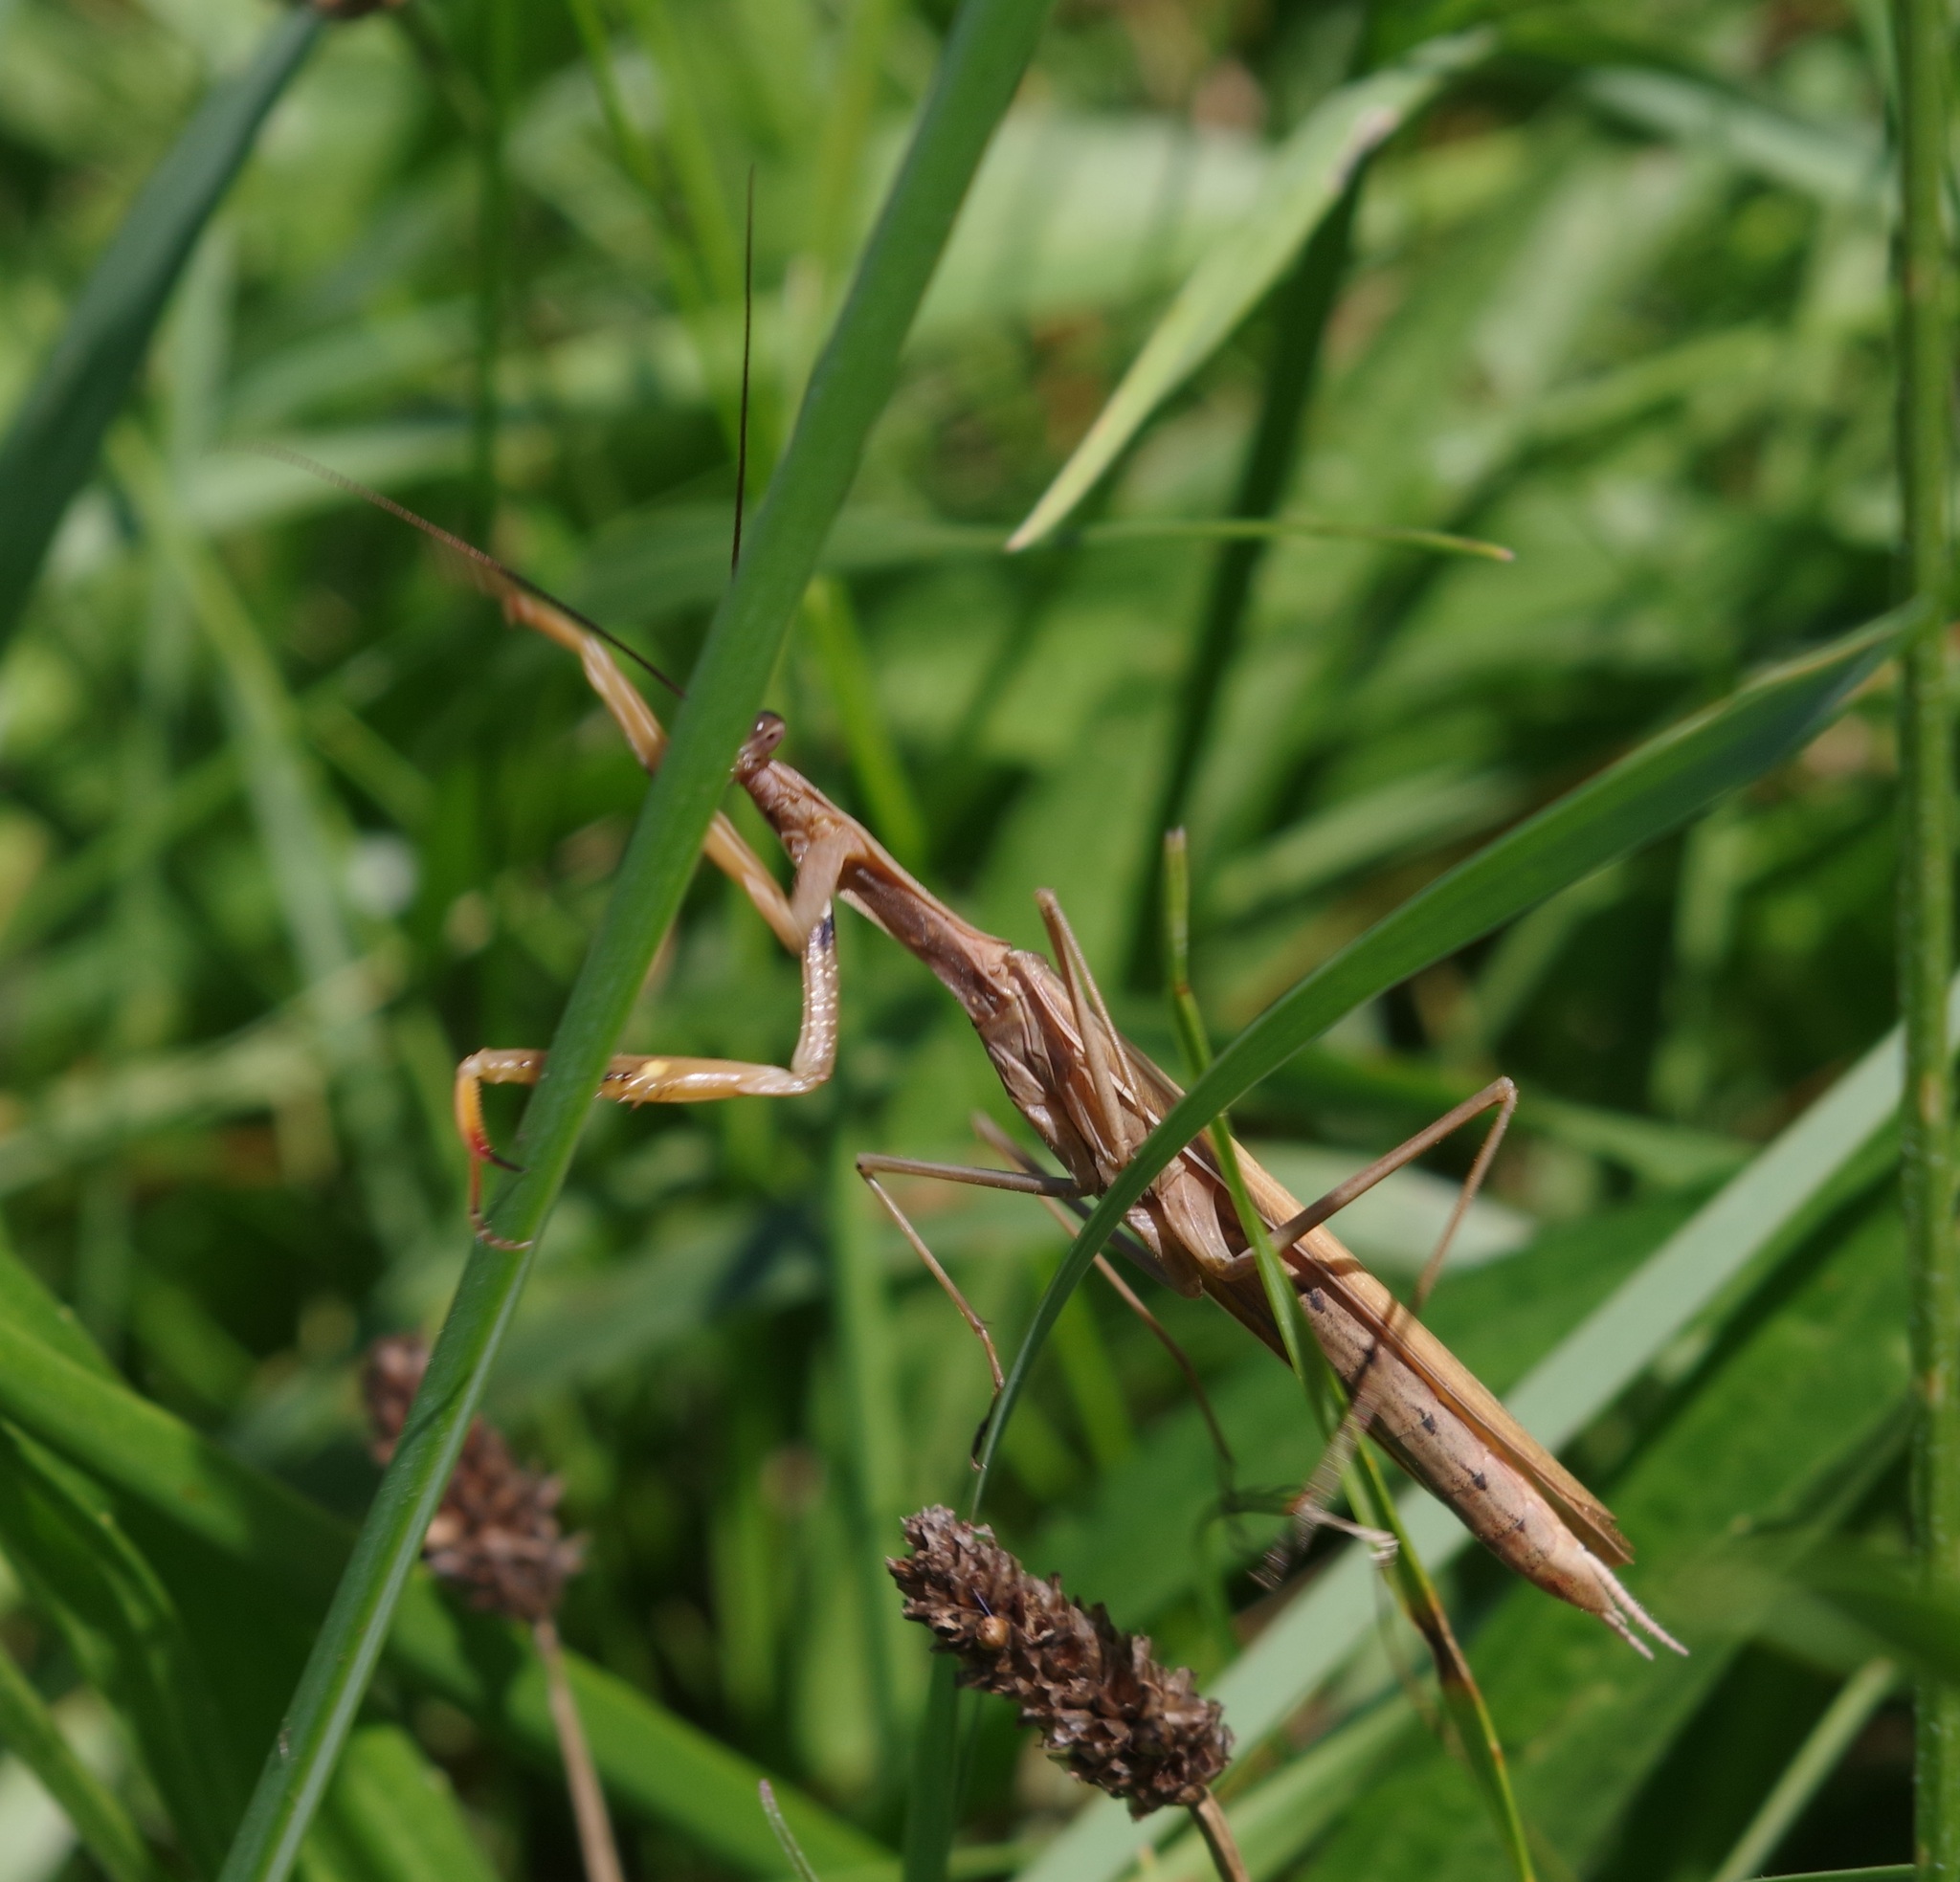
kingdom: Animalia
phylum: Arthropoda
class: Insecta
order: Mantodea
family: Mantidae
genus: Mantis
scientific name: Mantis religiosa
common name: Praying mantis
